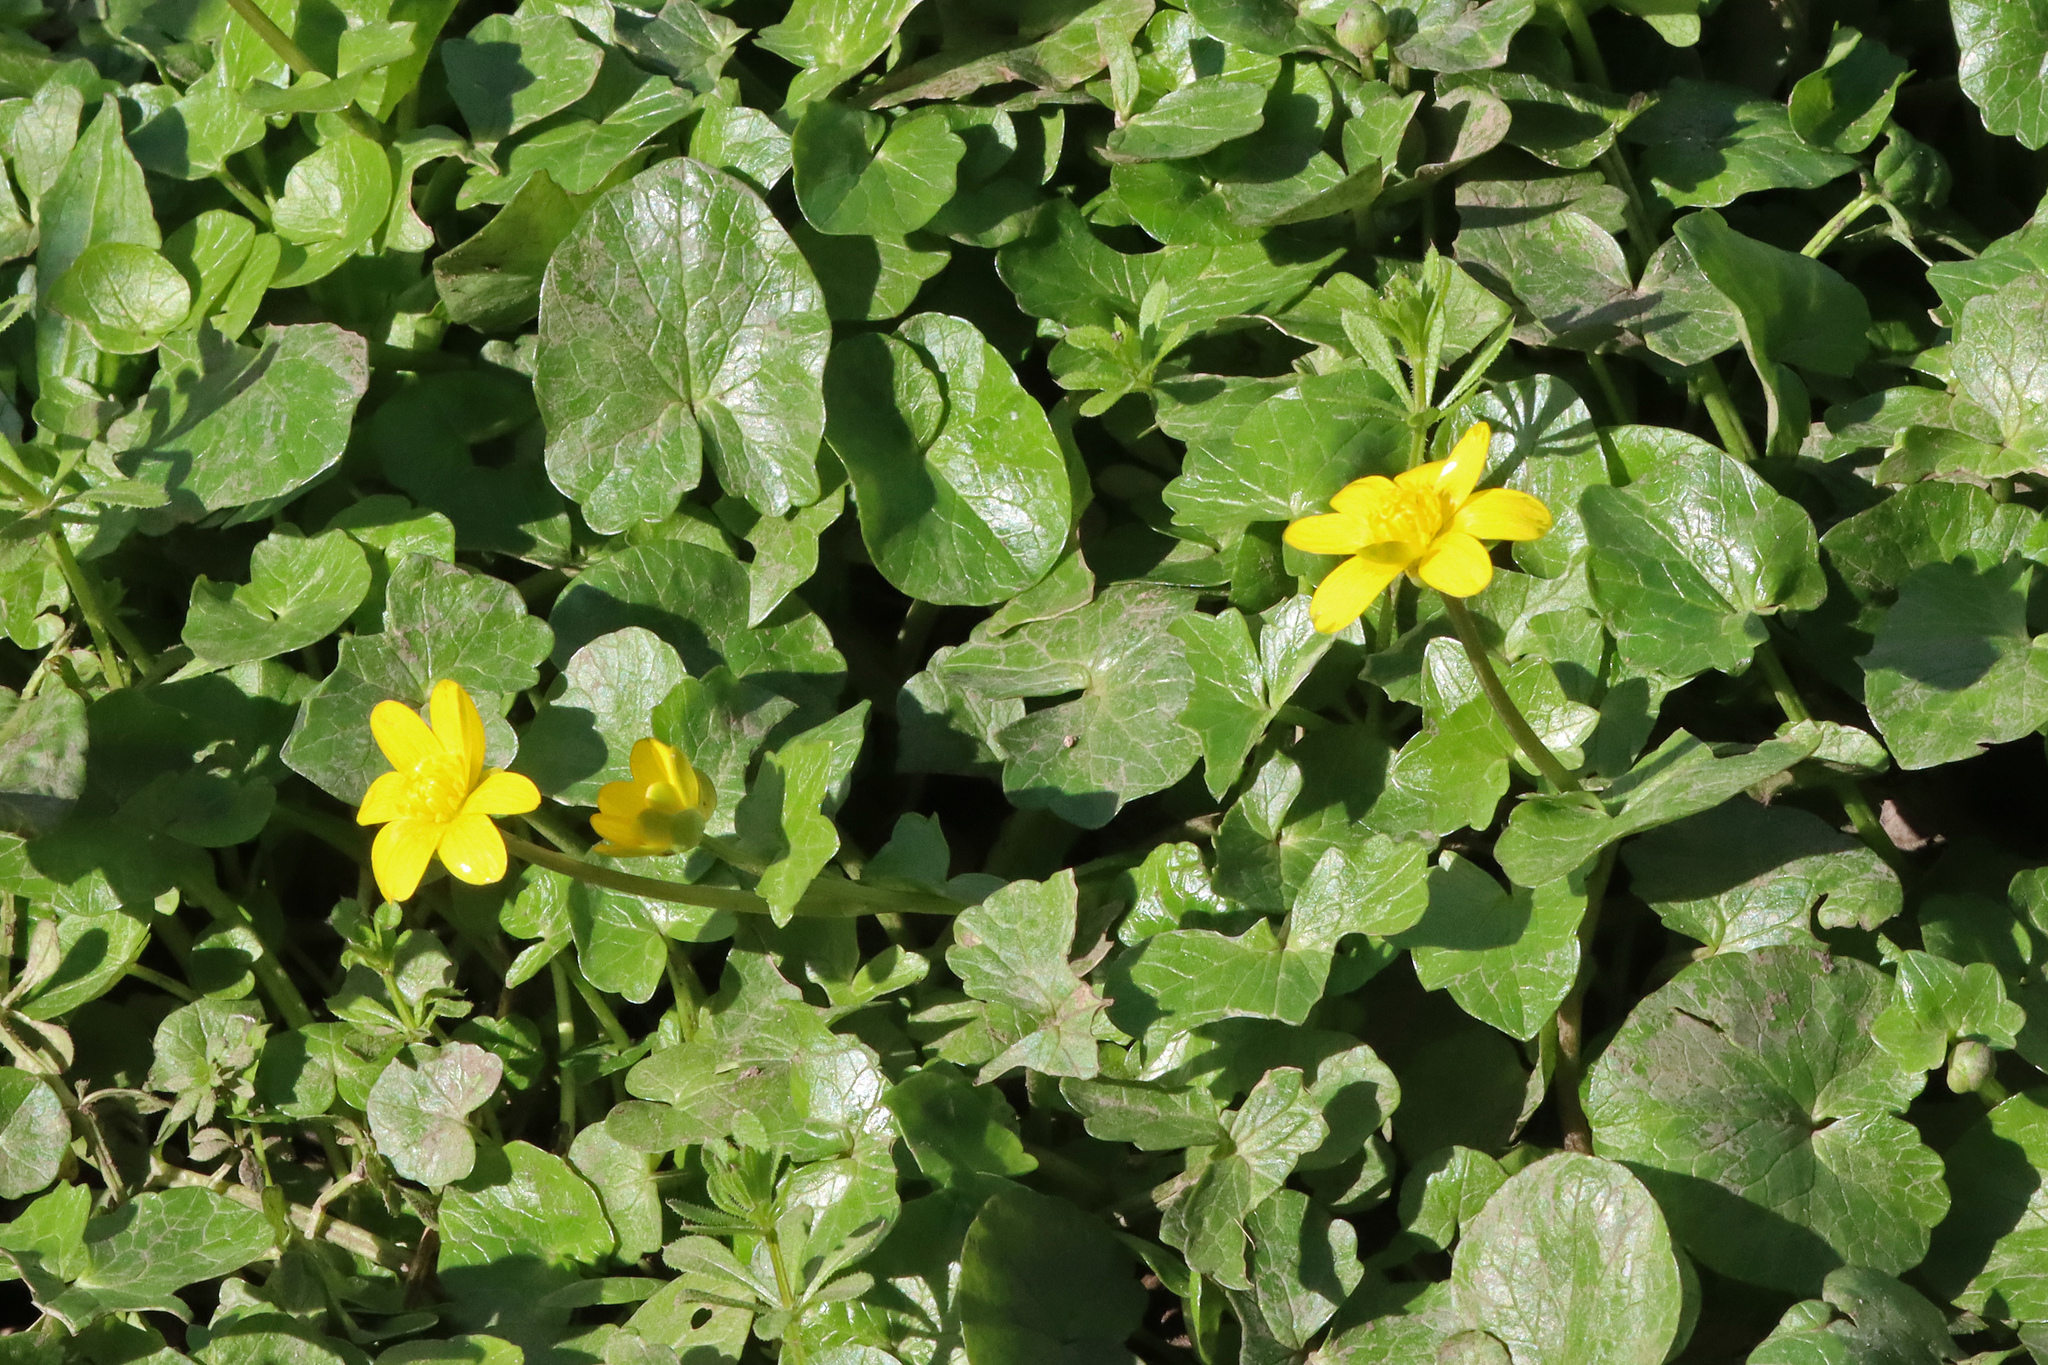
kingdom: Plantae
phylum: Tracheophyta
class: Magnoliopsida
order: Ranunculales
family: Ranunculaceae
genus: Ficaria
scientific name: Ficaria verna
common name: Lesser celandine
